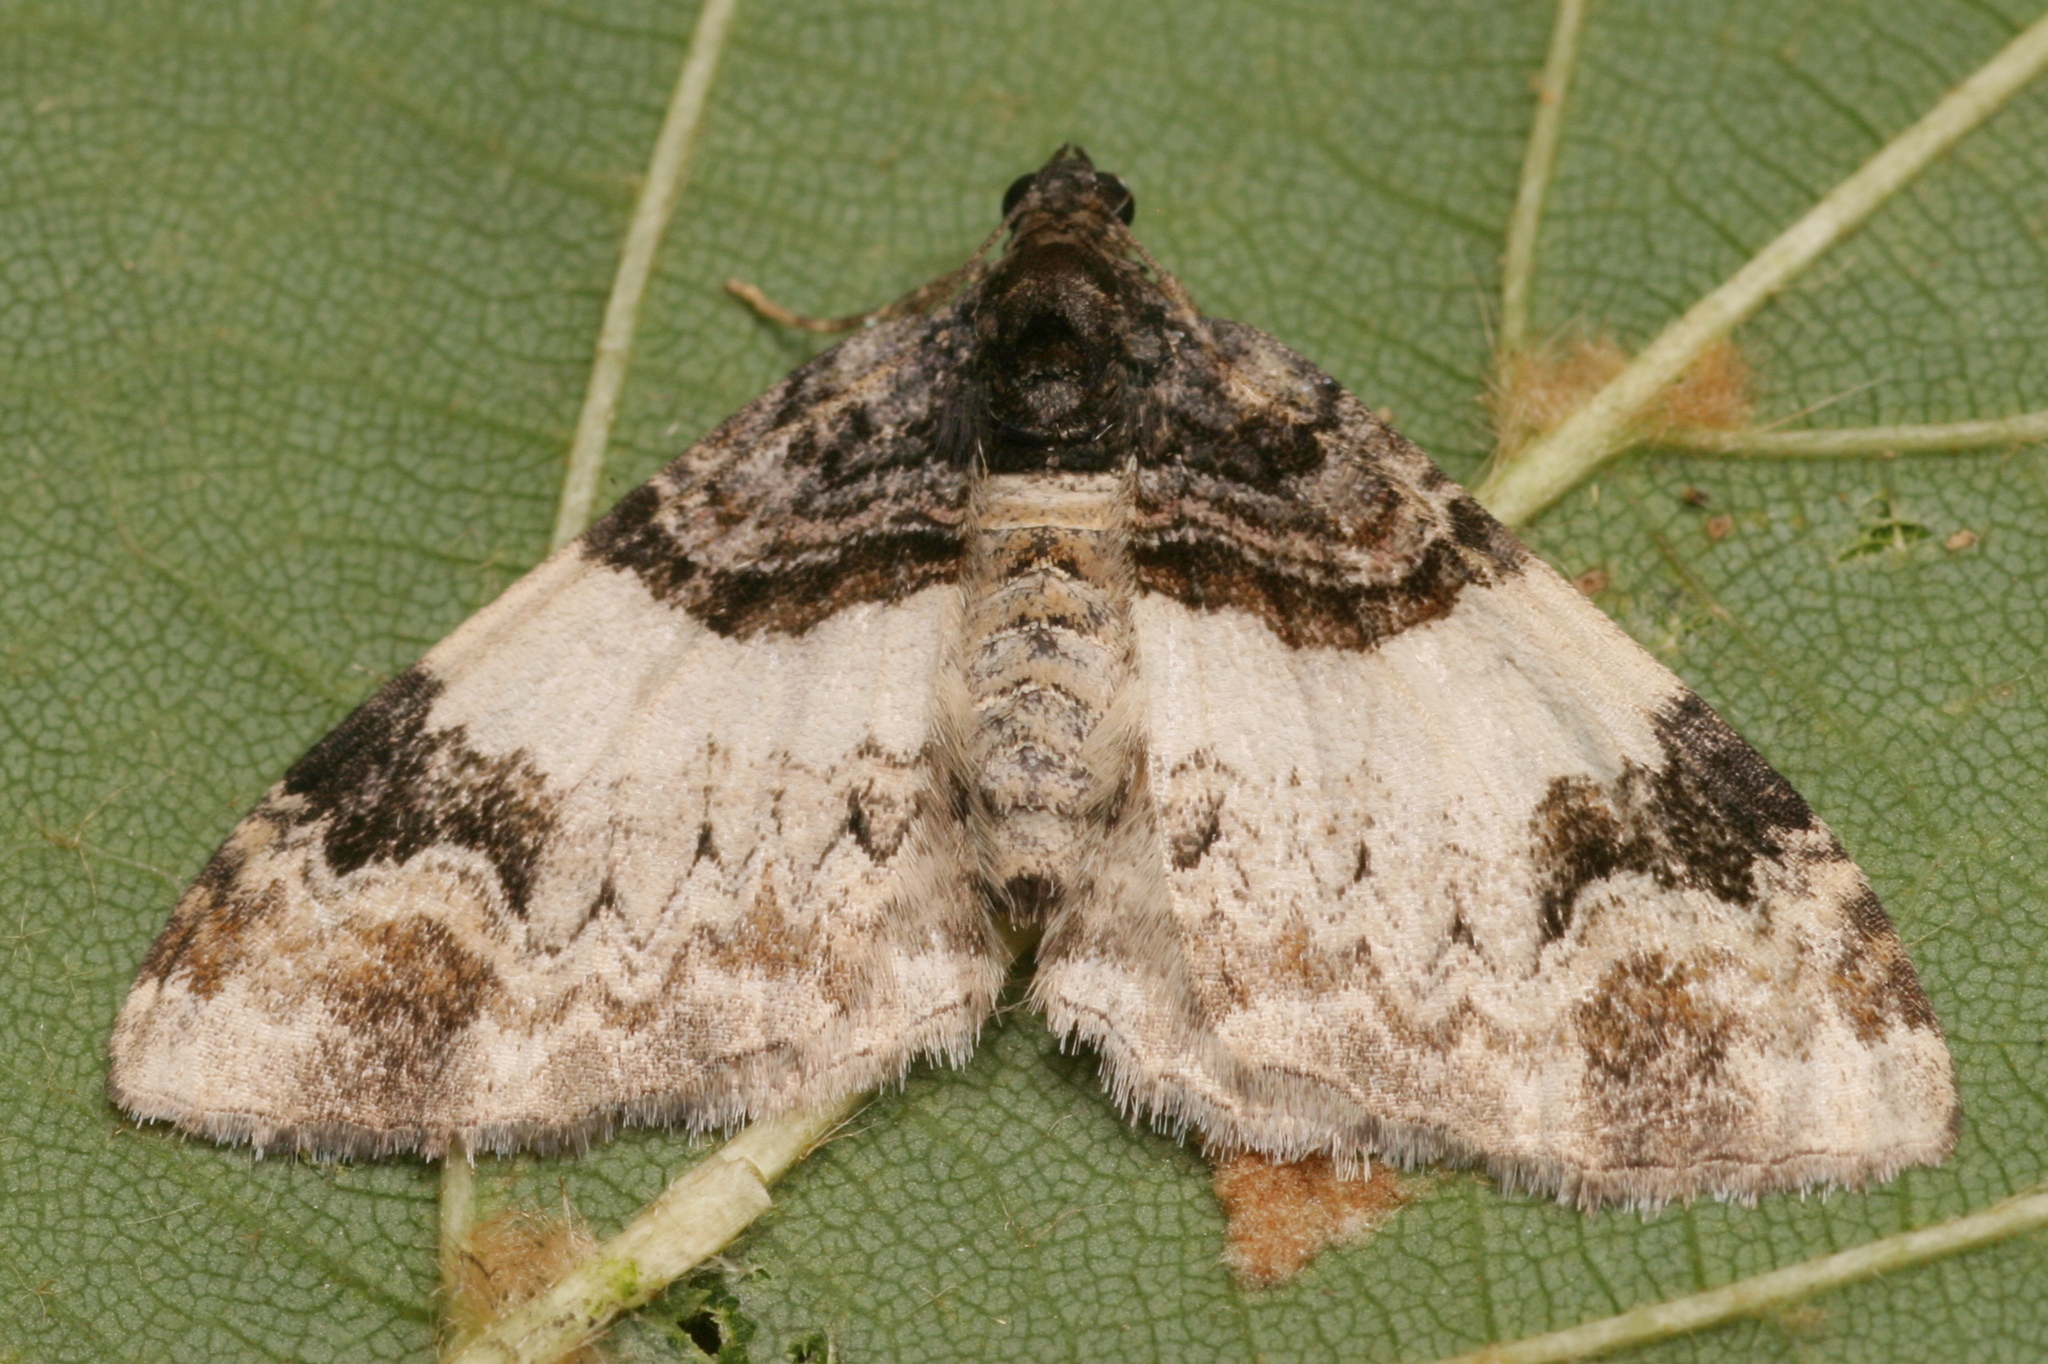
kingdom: Animalia
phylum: Arthropoda
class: Insecta
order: Lepidoptera
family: Geometridae
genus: Catarhoe
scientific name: Catarhoe cuculata
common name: Royal mantle
